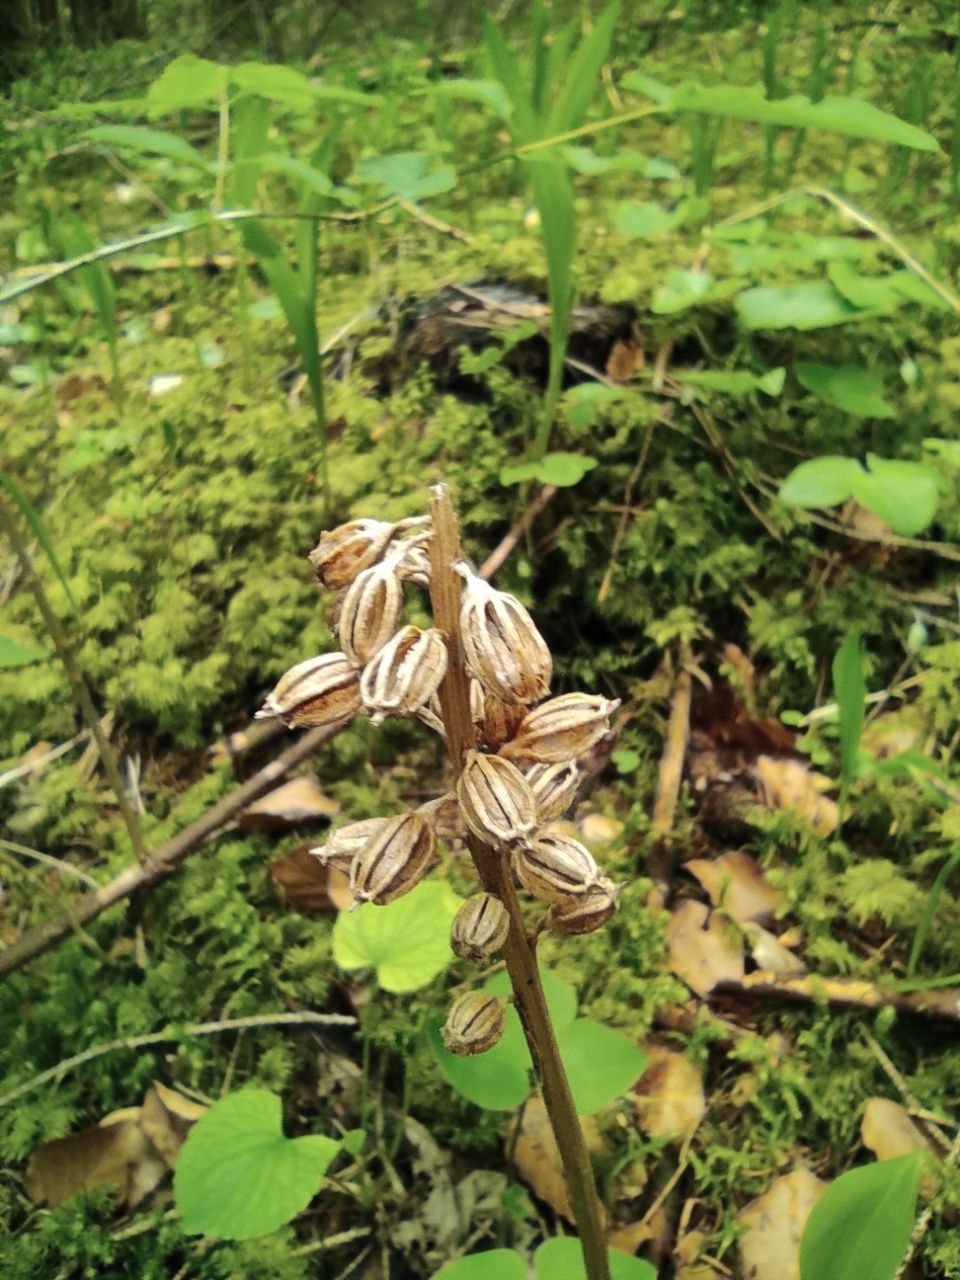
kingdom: Plantae
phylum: Tracheophyta
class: Liliopsida
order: Asparagales
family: Orchidaceae
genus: Neottia
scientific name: Neottia nidus-avis
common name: Bird's-nest orchid
